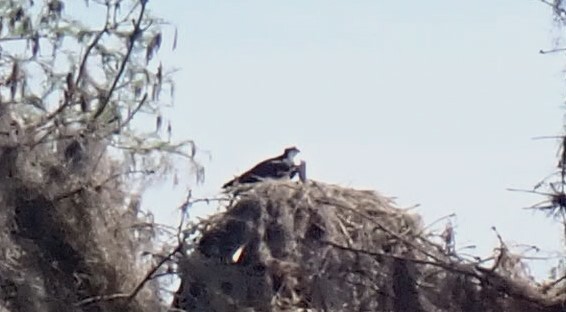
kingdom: Animalia
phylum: Chordata
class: Aves
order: Accipitriformes
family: Pandionidae
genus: Pandion
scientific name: Pandion haliaetus
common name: Osprey
